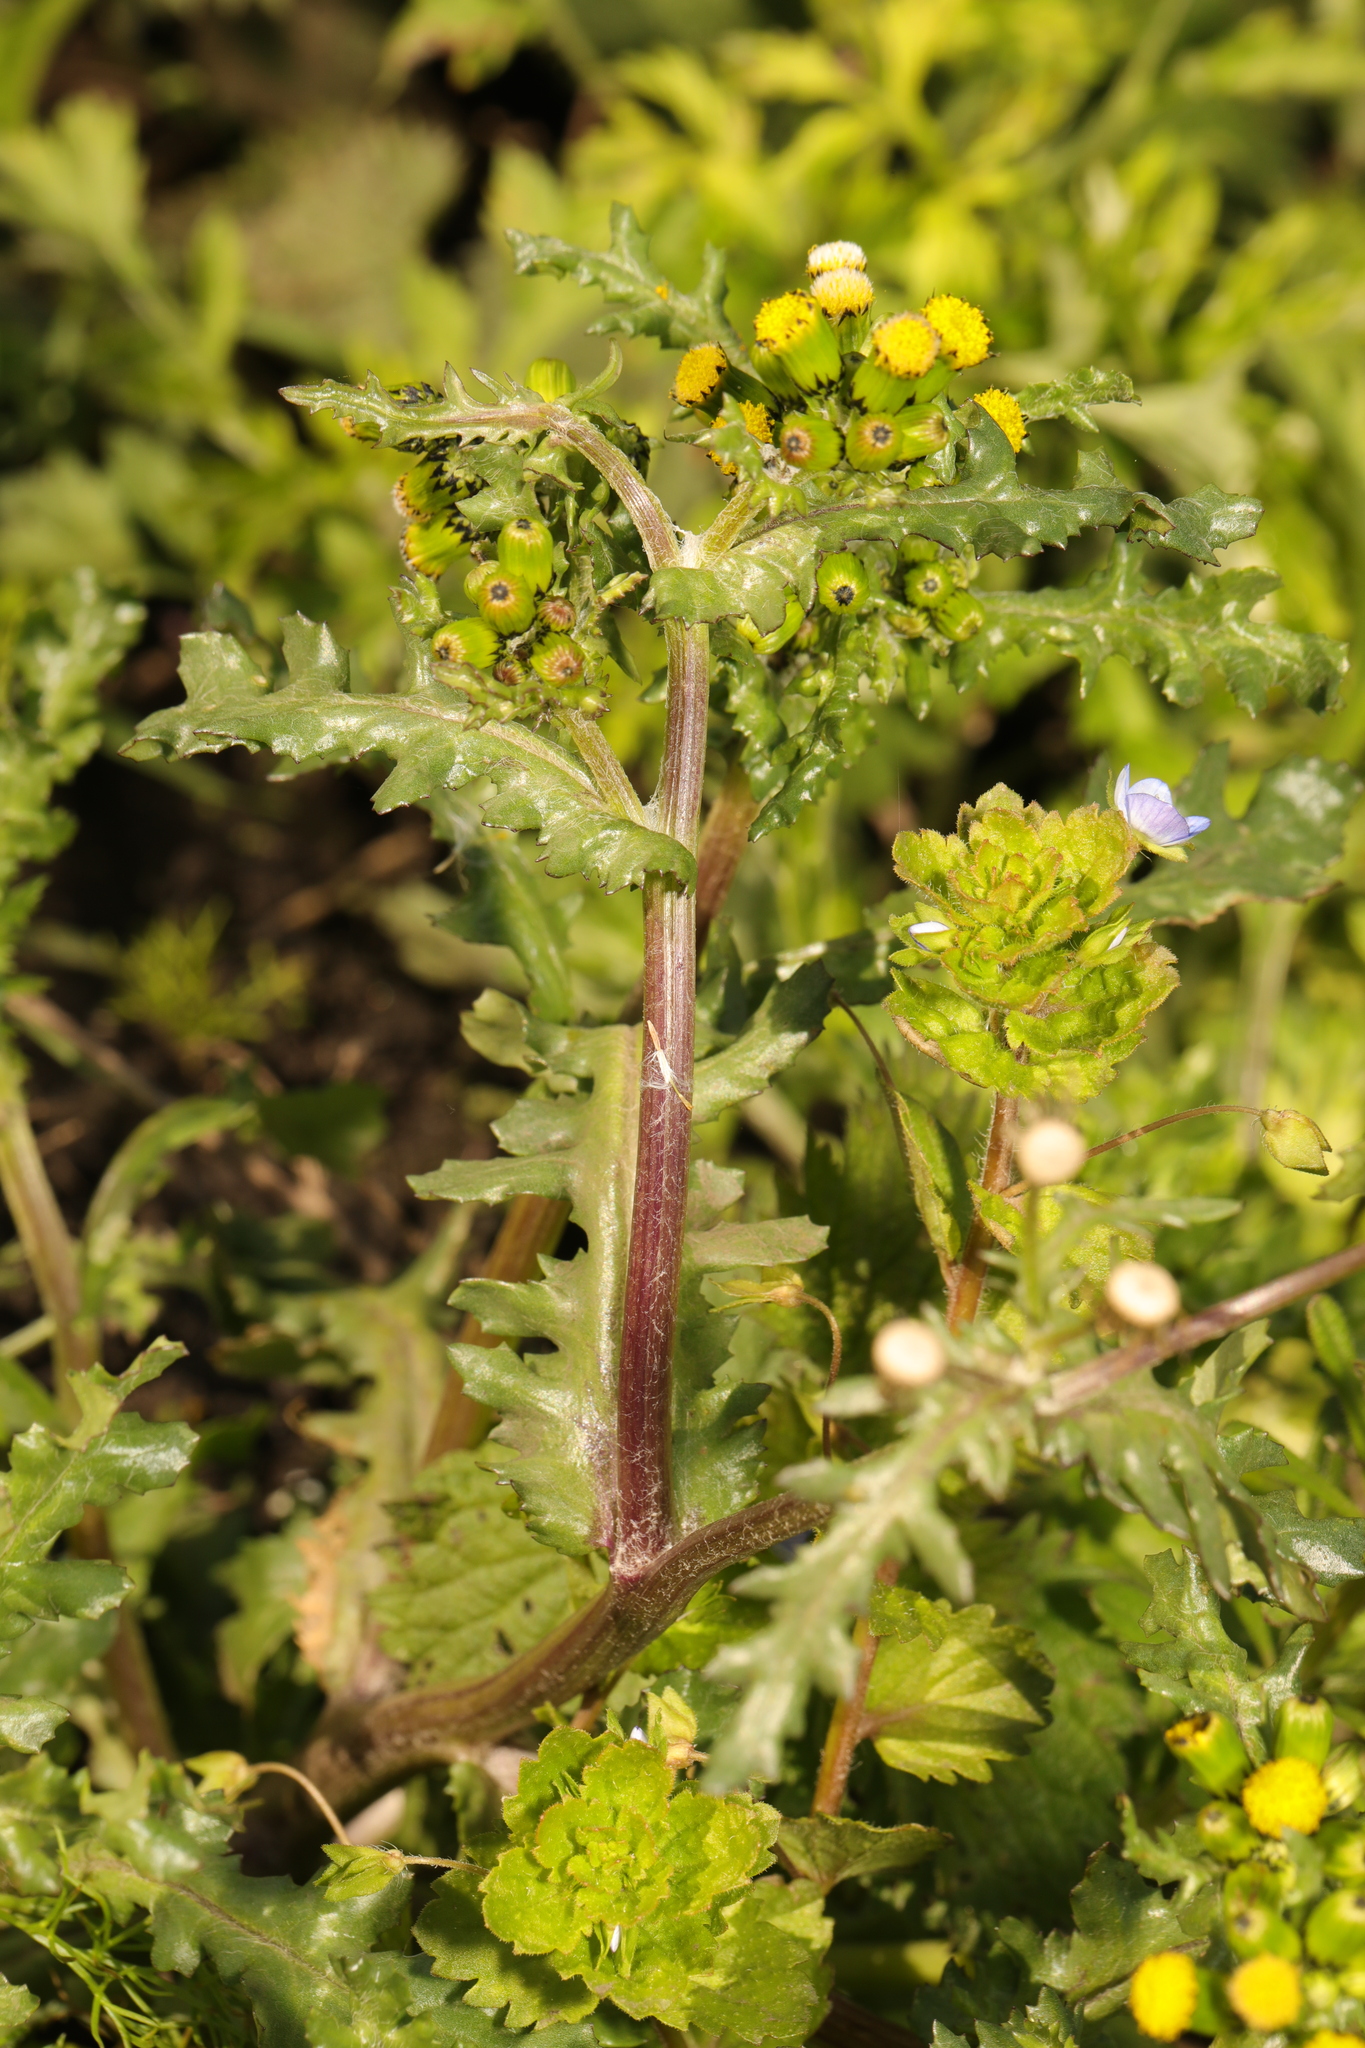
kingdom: Plantae
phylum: Tracheophyta
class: Magnoliopsida
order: Asterales
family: Asteraceae
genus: Senecio
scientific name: Senecio vulgaris
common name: Old-man-in-the-spring
